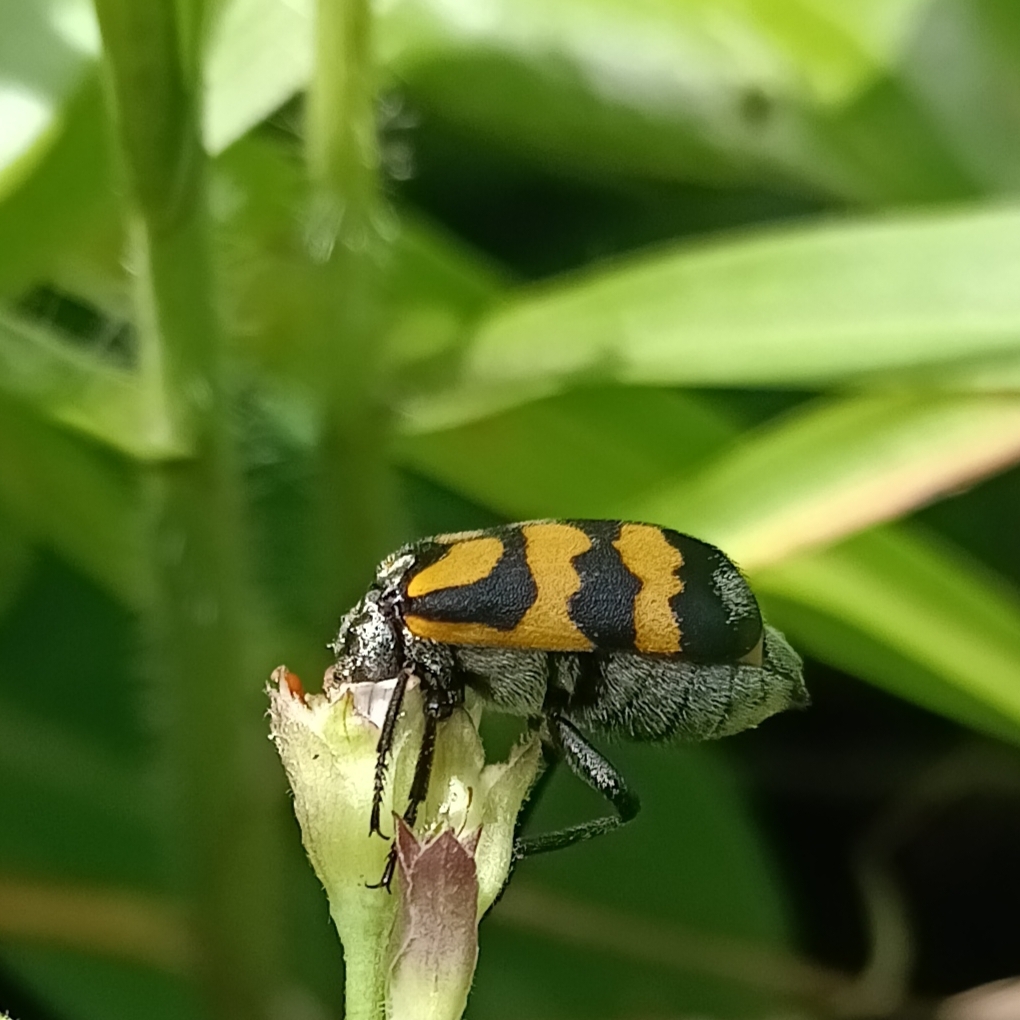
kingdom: Animalia
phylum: Arthropoda
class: Insecta
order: Coleoptera
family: Meloidae
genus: Meloe
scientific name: Meloe lunata
